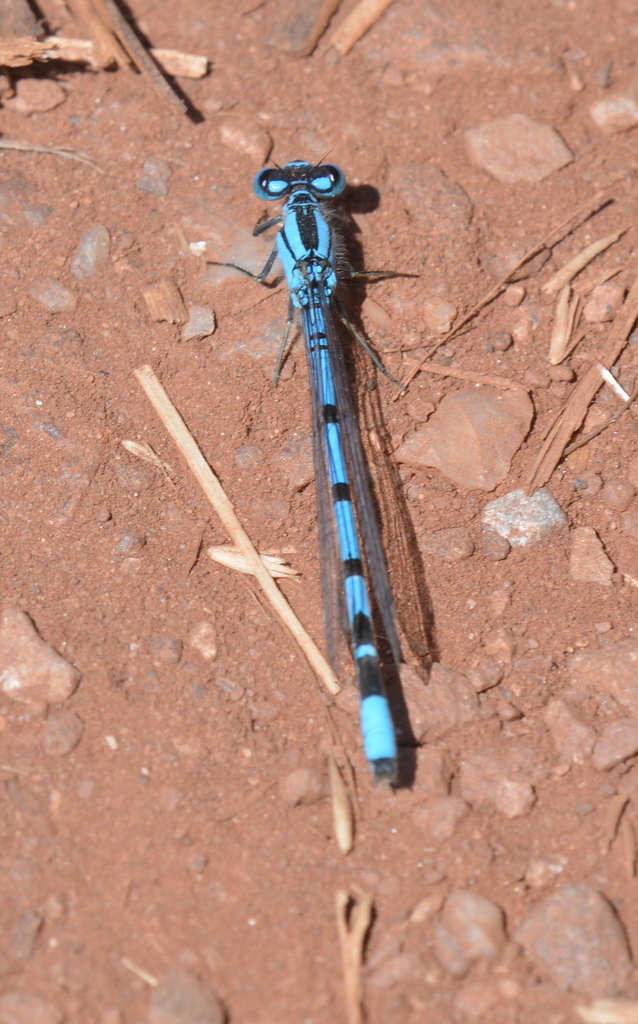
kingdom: Animalia
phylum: Arthropoda
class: Insecta
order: Odonata
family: Coenagrionidae
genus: Enallagma
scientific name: Enallagma cyathigerum
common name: Common blue damselfly
